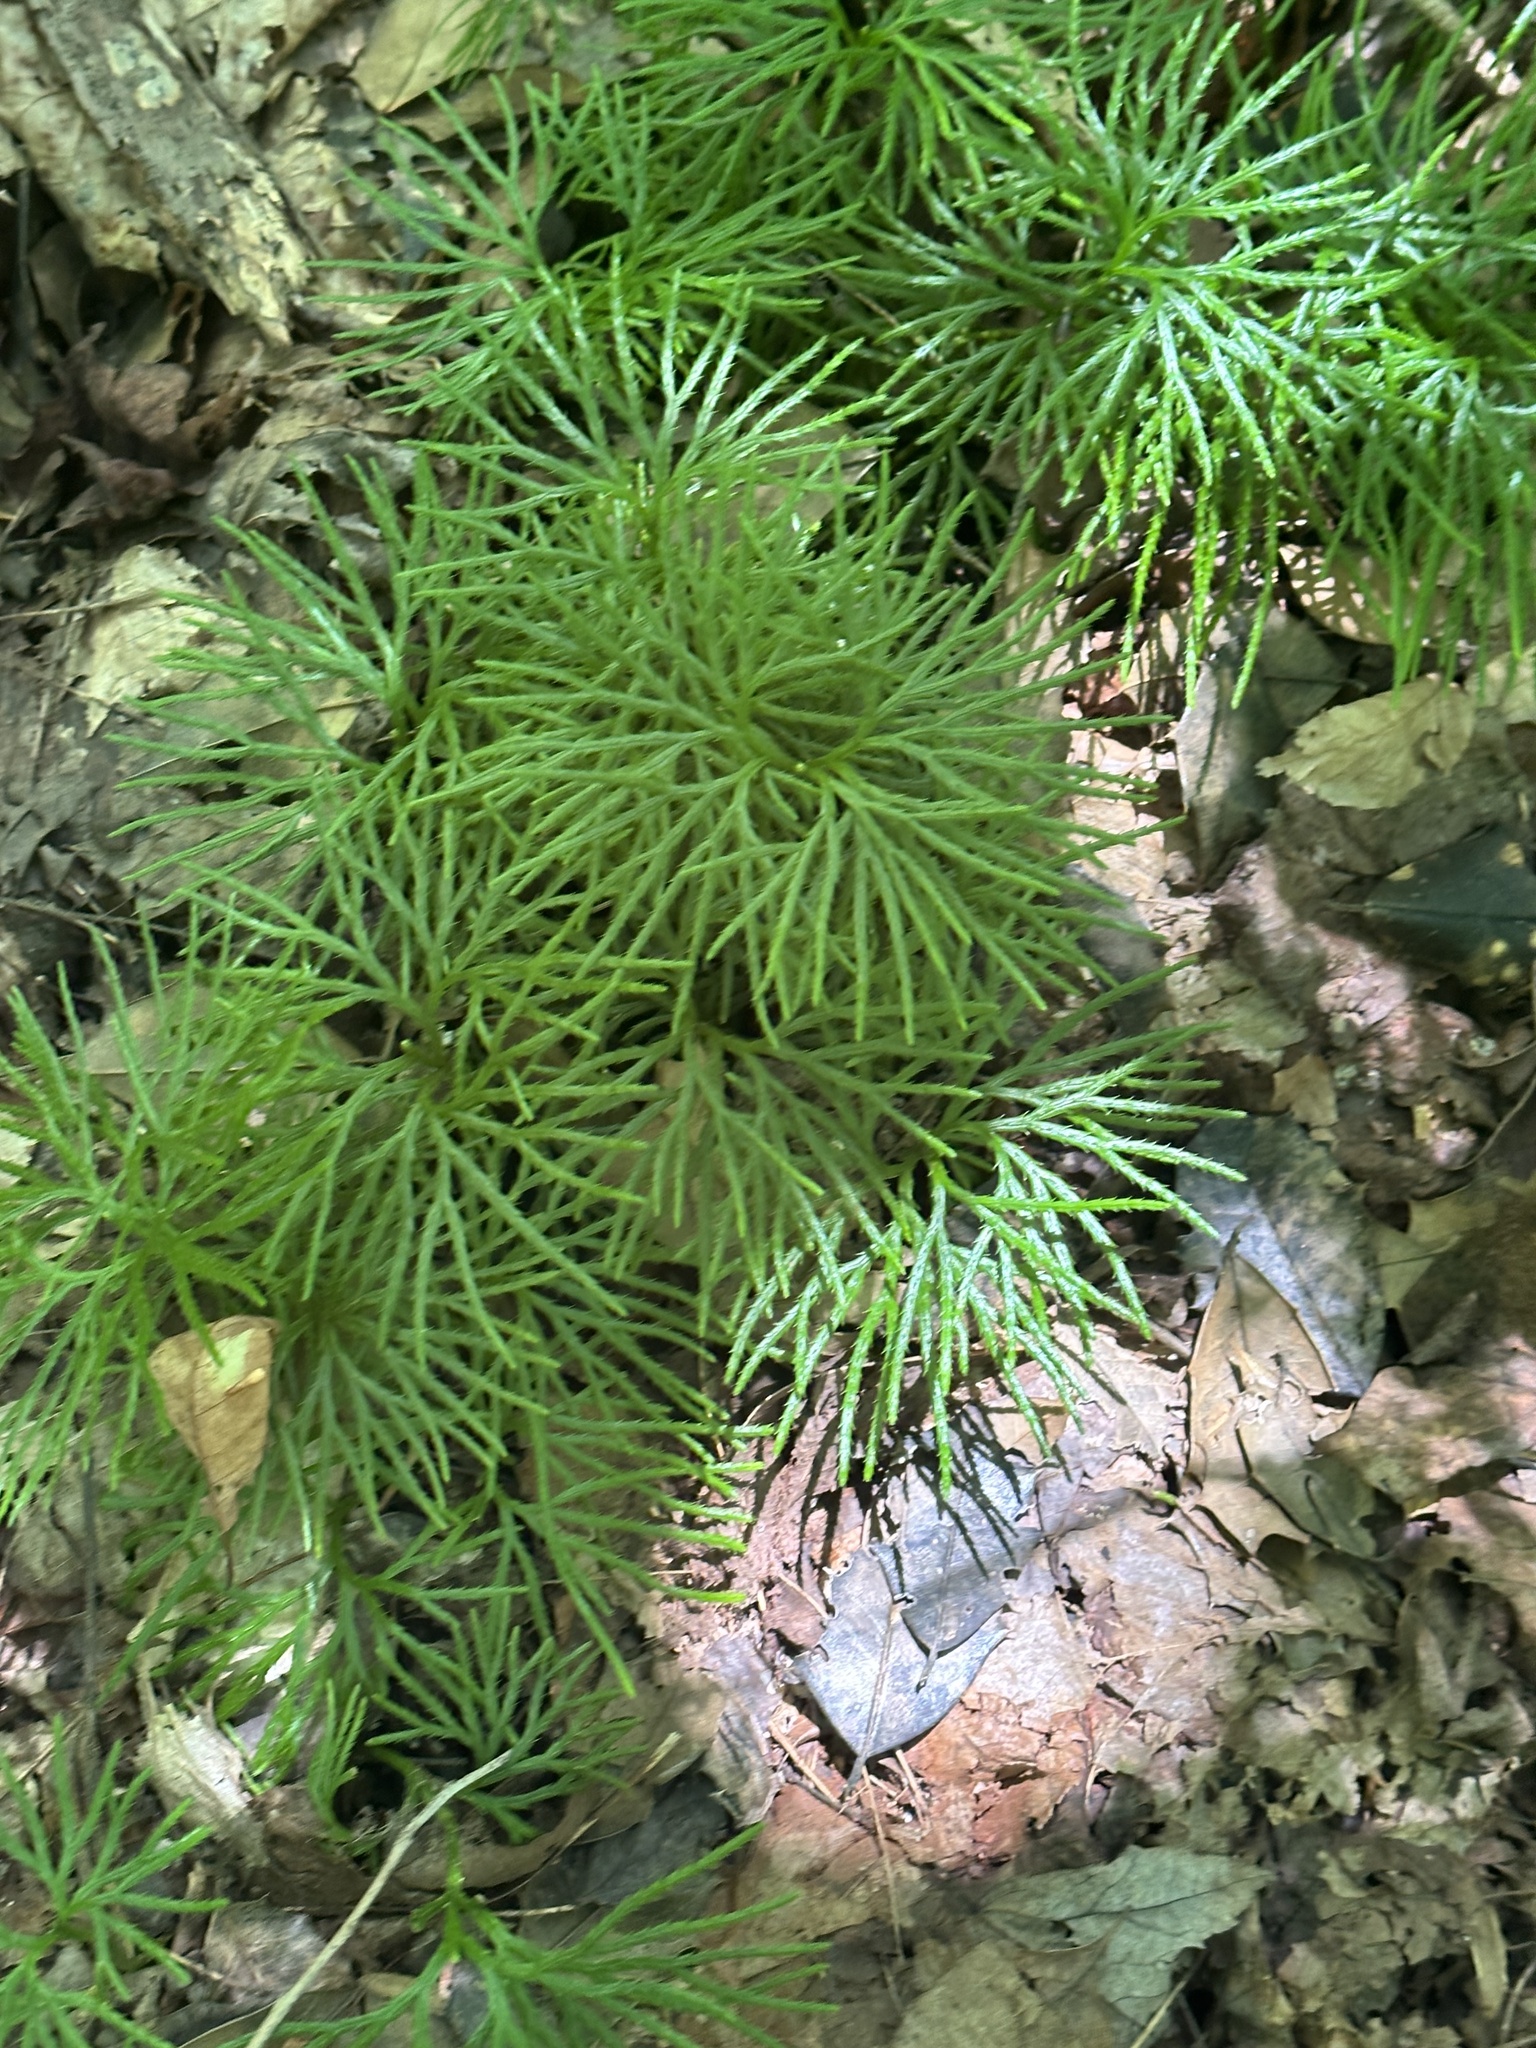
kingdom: Plantae
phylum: Tracheophyta
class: Lycopodiopsida
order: Lycopodiales
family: Lycopodiaceae
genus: Diphasiastrum
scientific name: Diphasiastrum digitatum
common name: Southern running-pine
